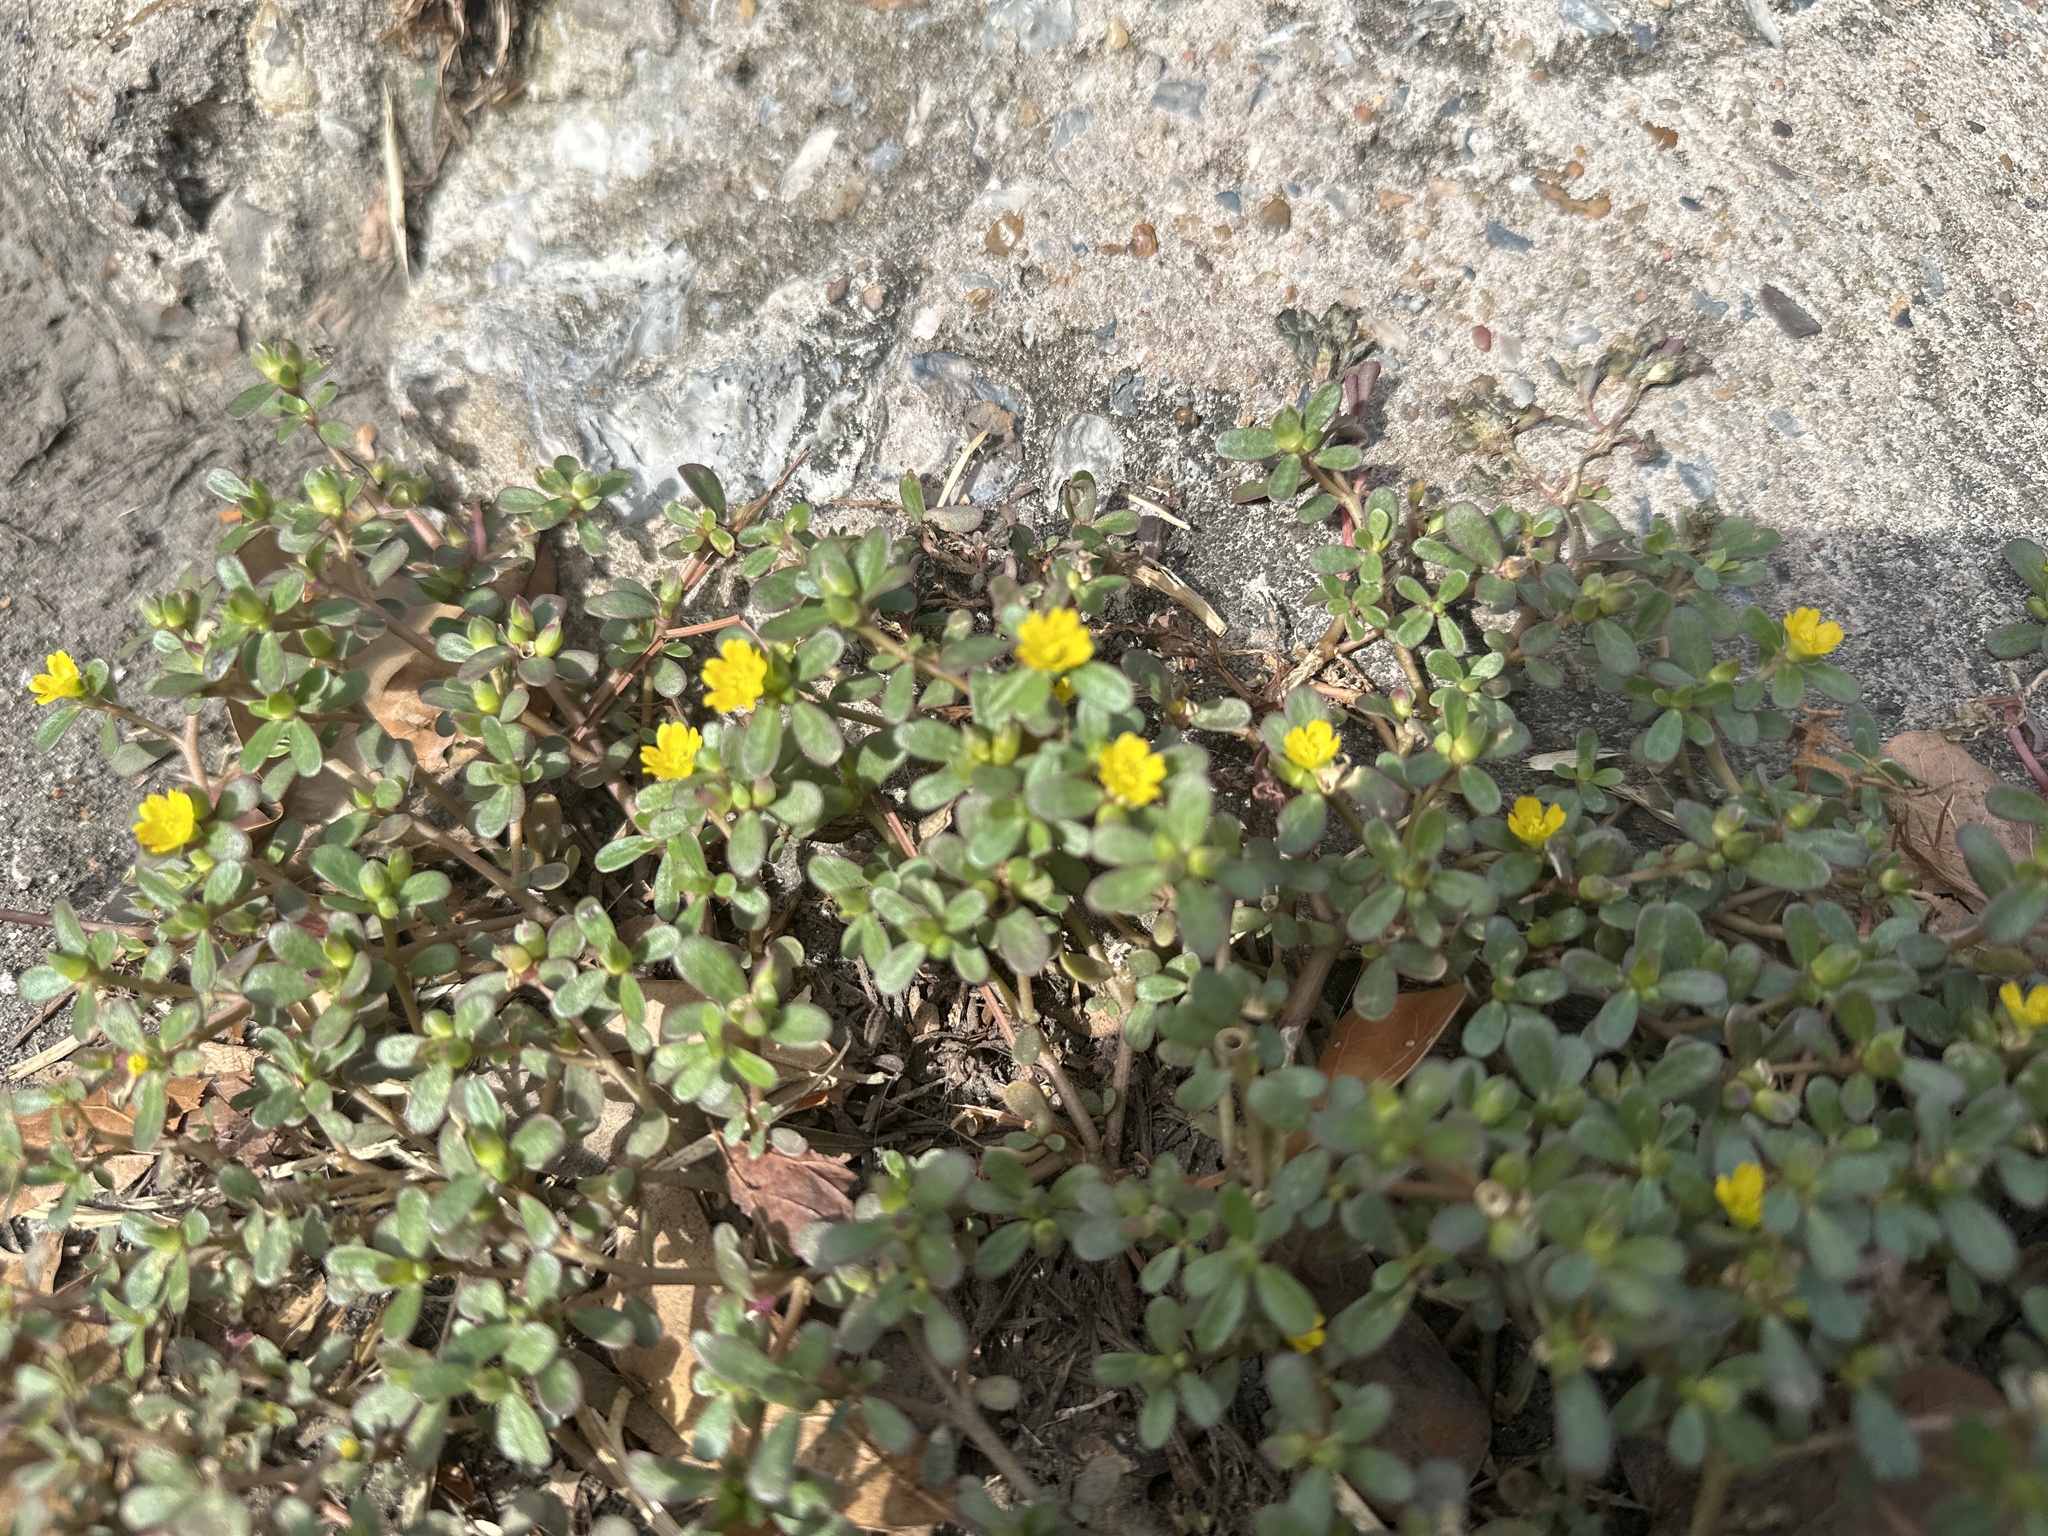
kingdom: Plantae
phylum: Tracheophyta
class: Magnoliopsida
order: Caryophyllales
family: Portulacaceae
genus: Portulaca
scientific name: Portulaca oleracea
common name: Common purslane
